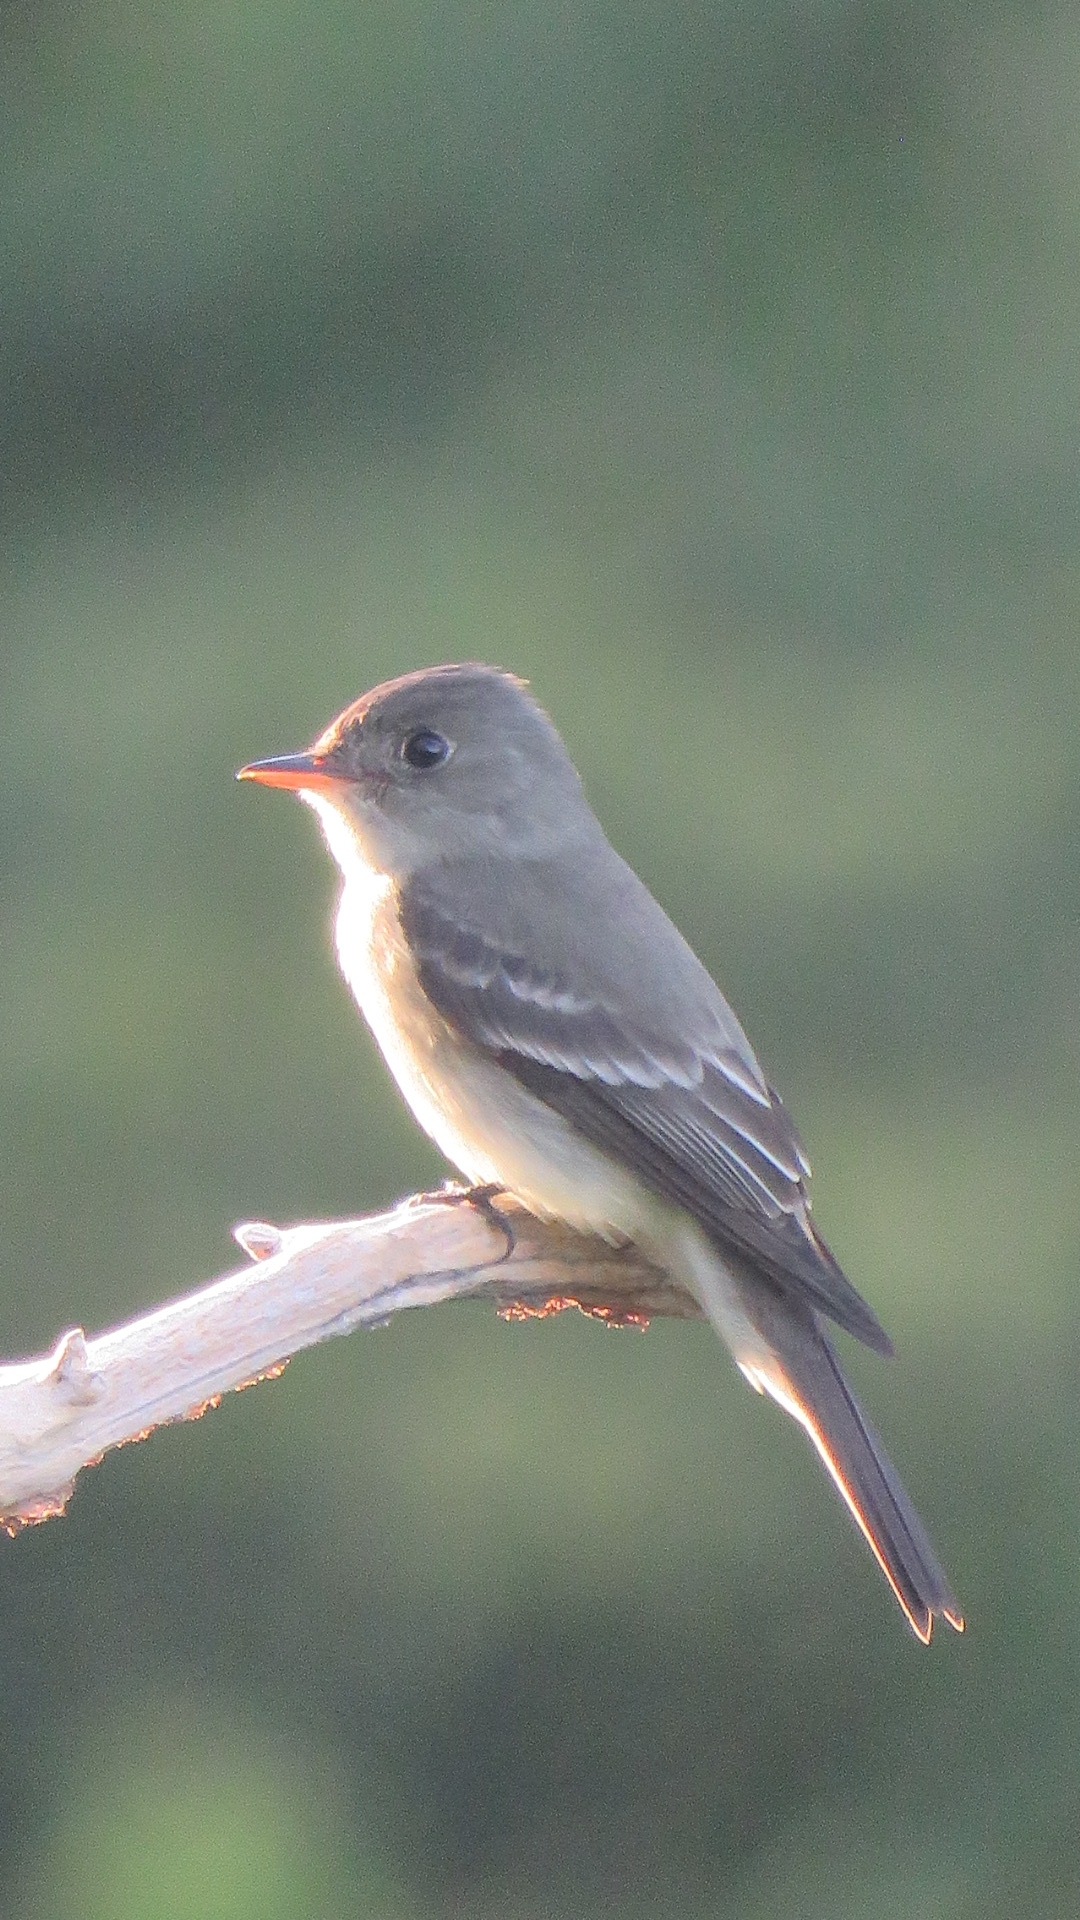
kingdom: Animalia
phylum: Chordata
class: Aves
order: Passeriformes
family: Tyrannidae
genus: Contopus
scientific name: Contopus virens
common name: Eastern wood-pewee
